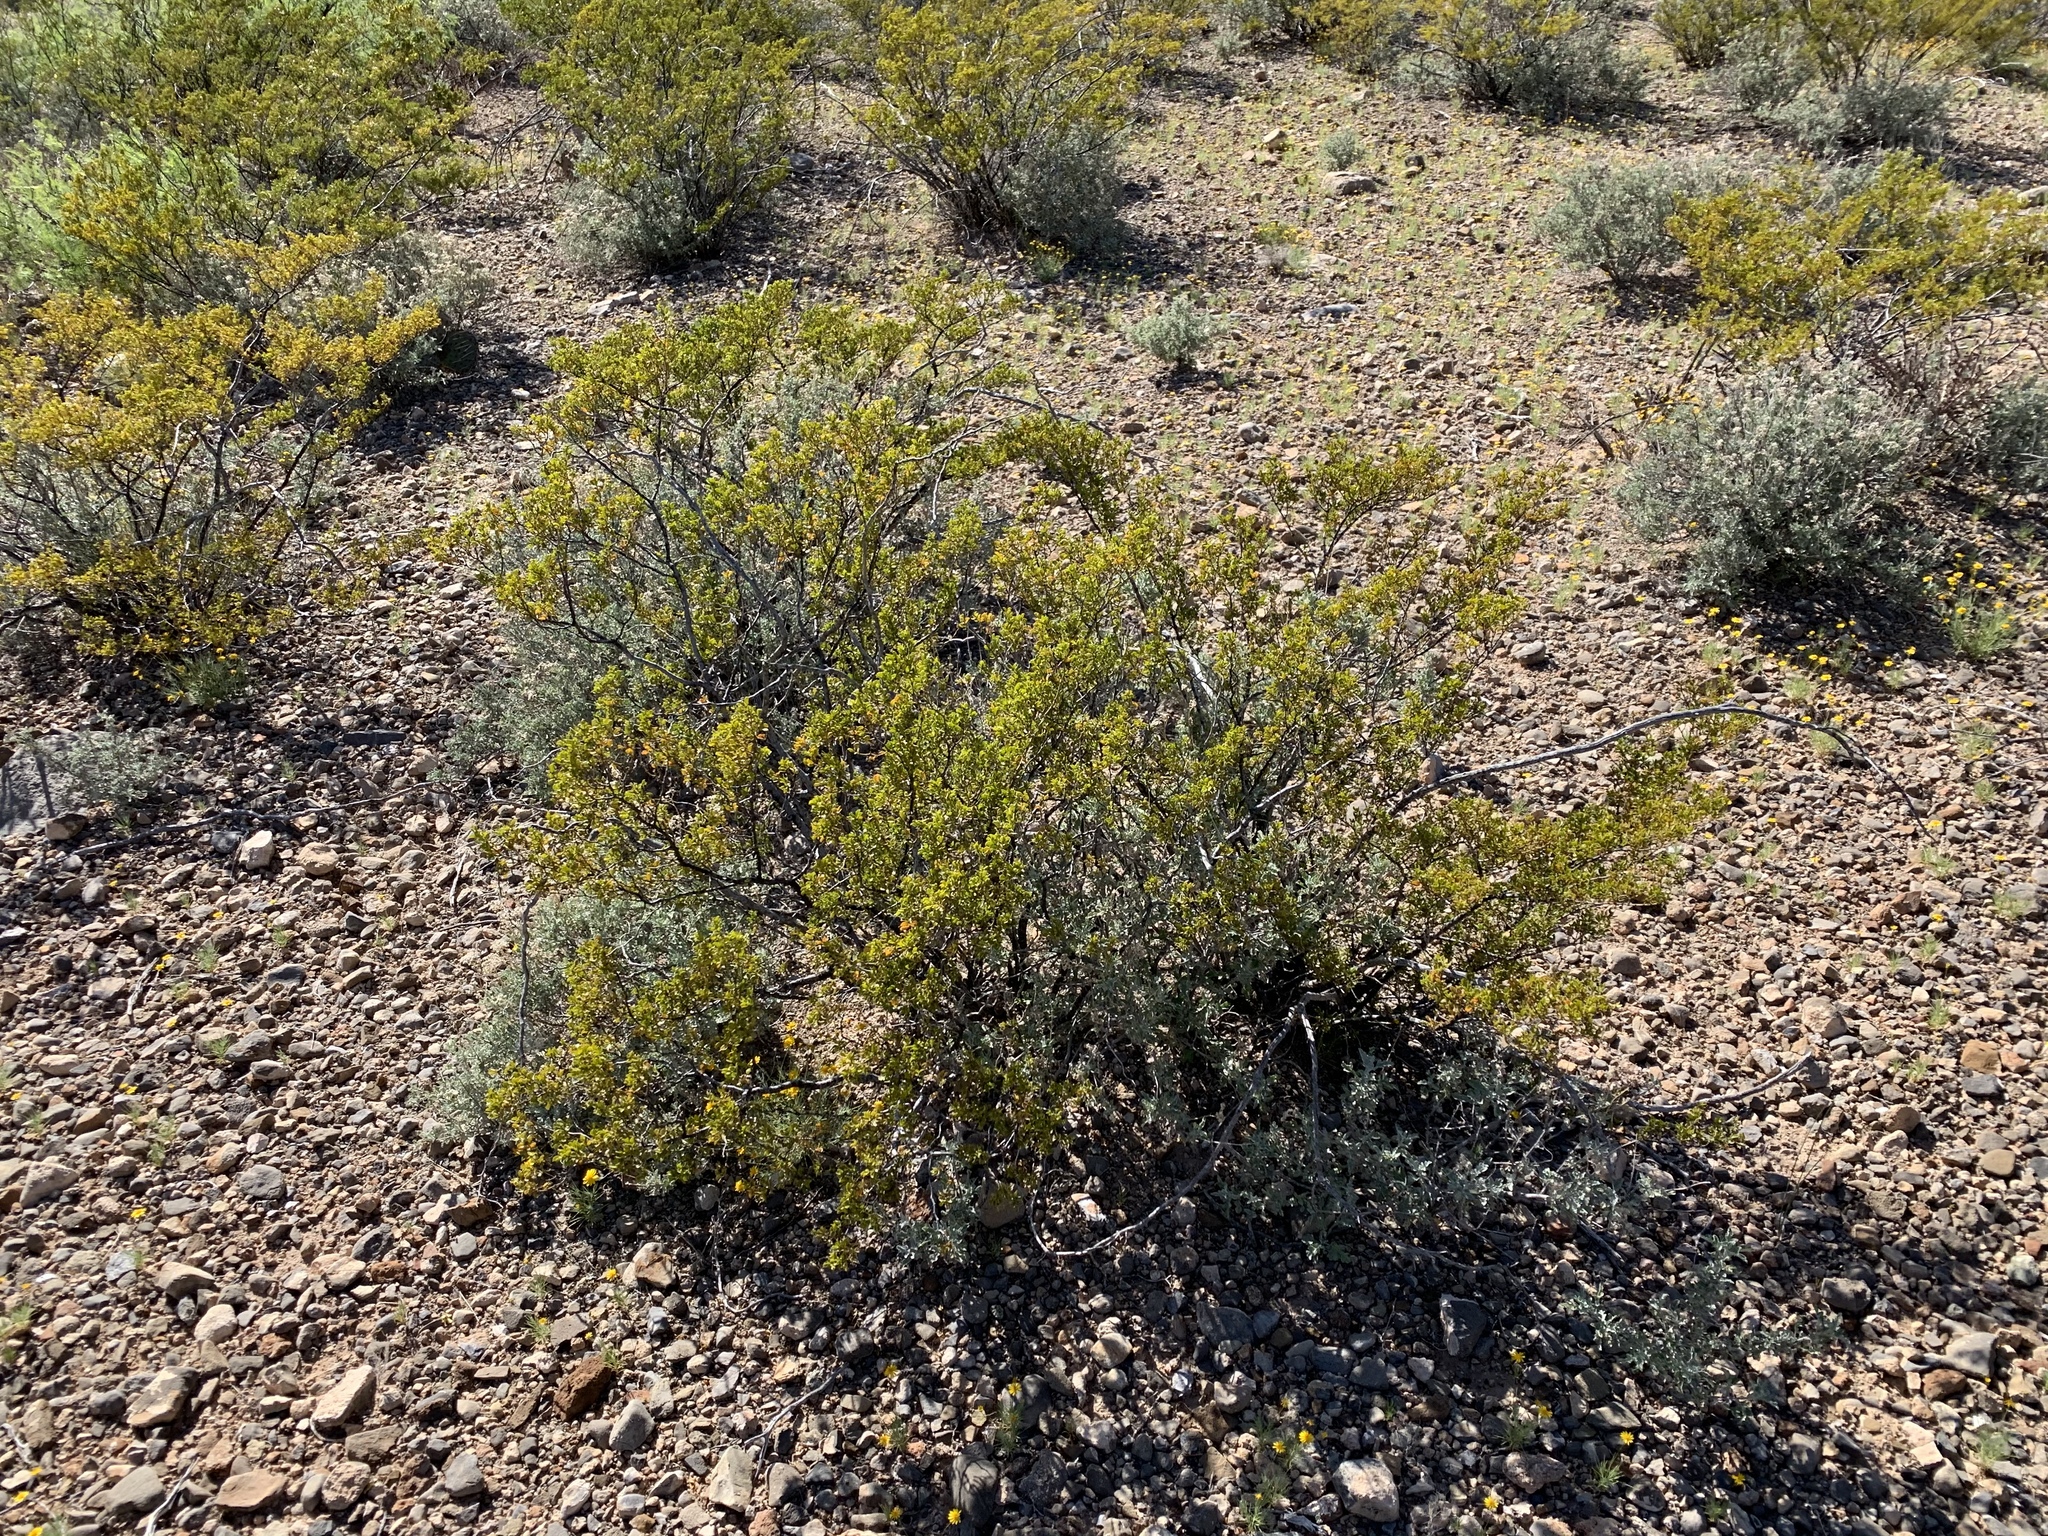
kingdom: Plantae
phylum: Tracheophyta
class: Magnoliopsida
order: Zygophyllales
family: Zygophyllaceae
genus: Larrea
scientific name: Larrea tridentata
